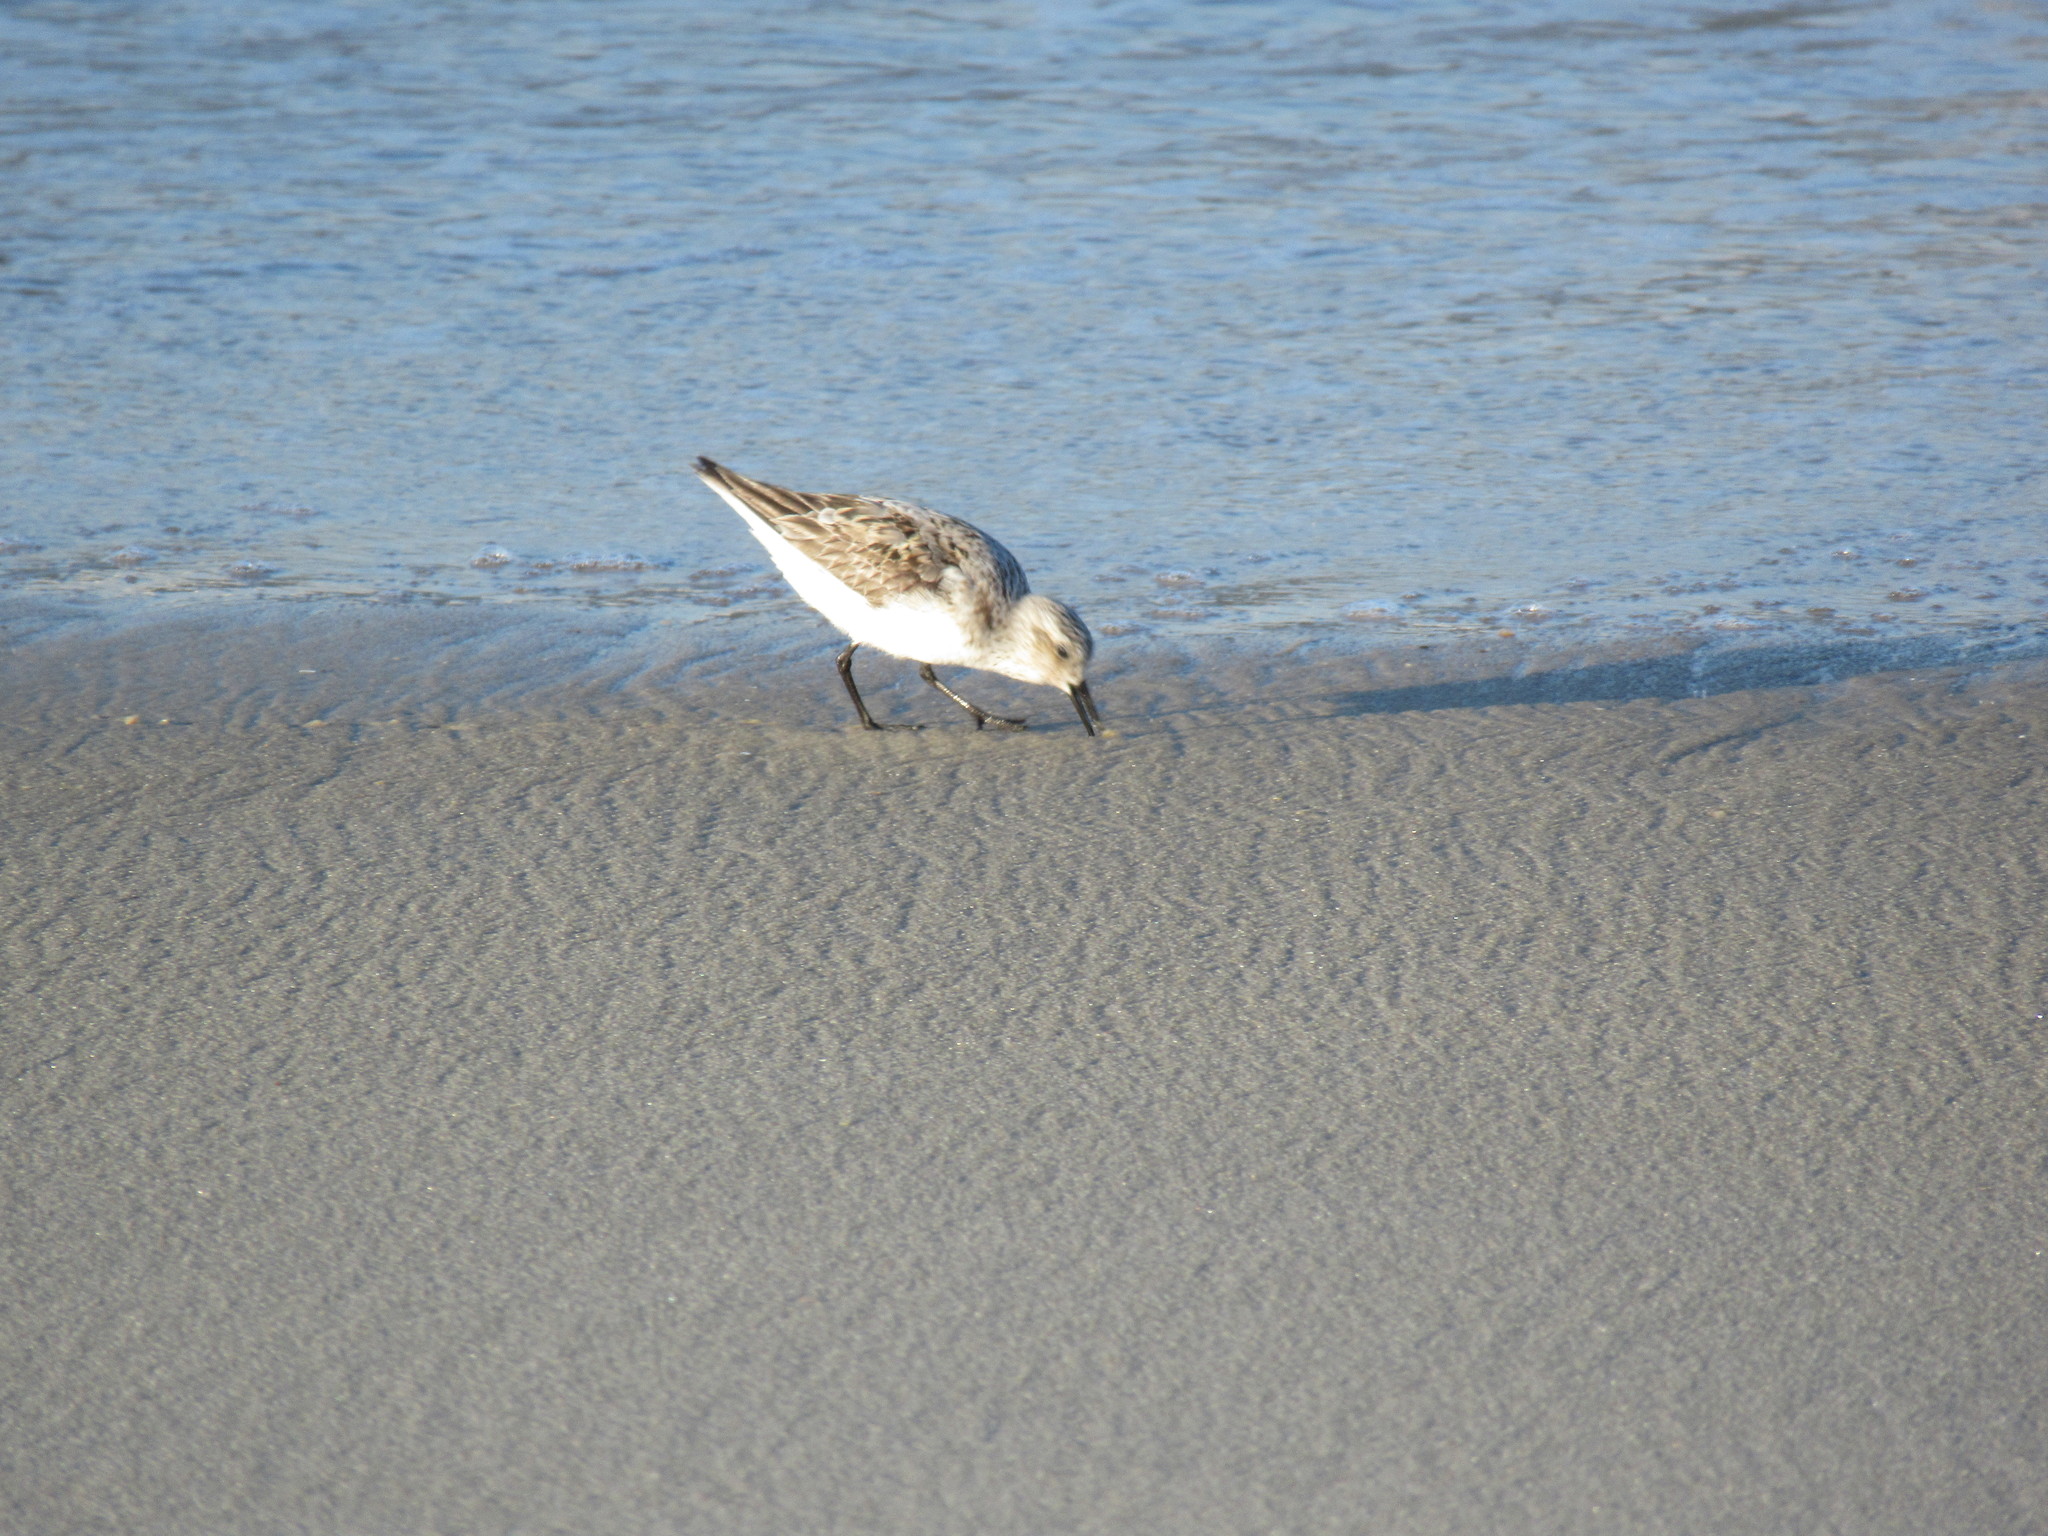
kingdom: Animalia
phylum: Chordata
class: Aves
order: Charadriiformes
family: Scolopacidae
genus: Calidris
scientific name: Calidris alba
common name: Sanderling
